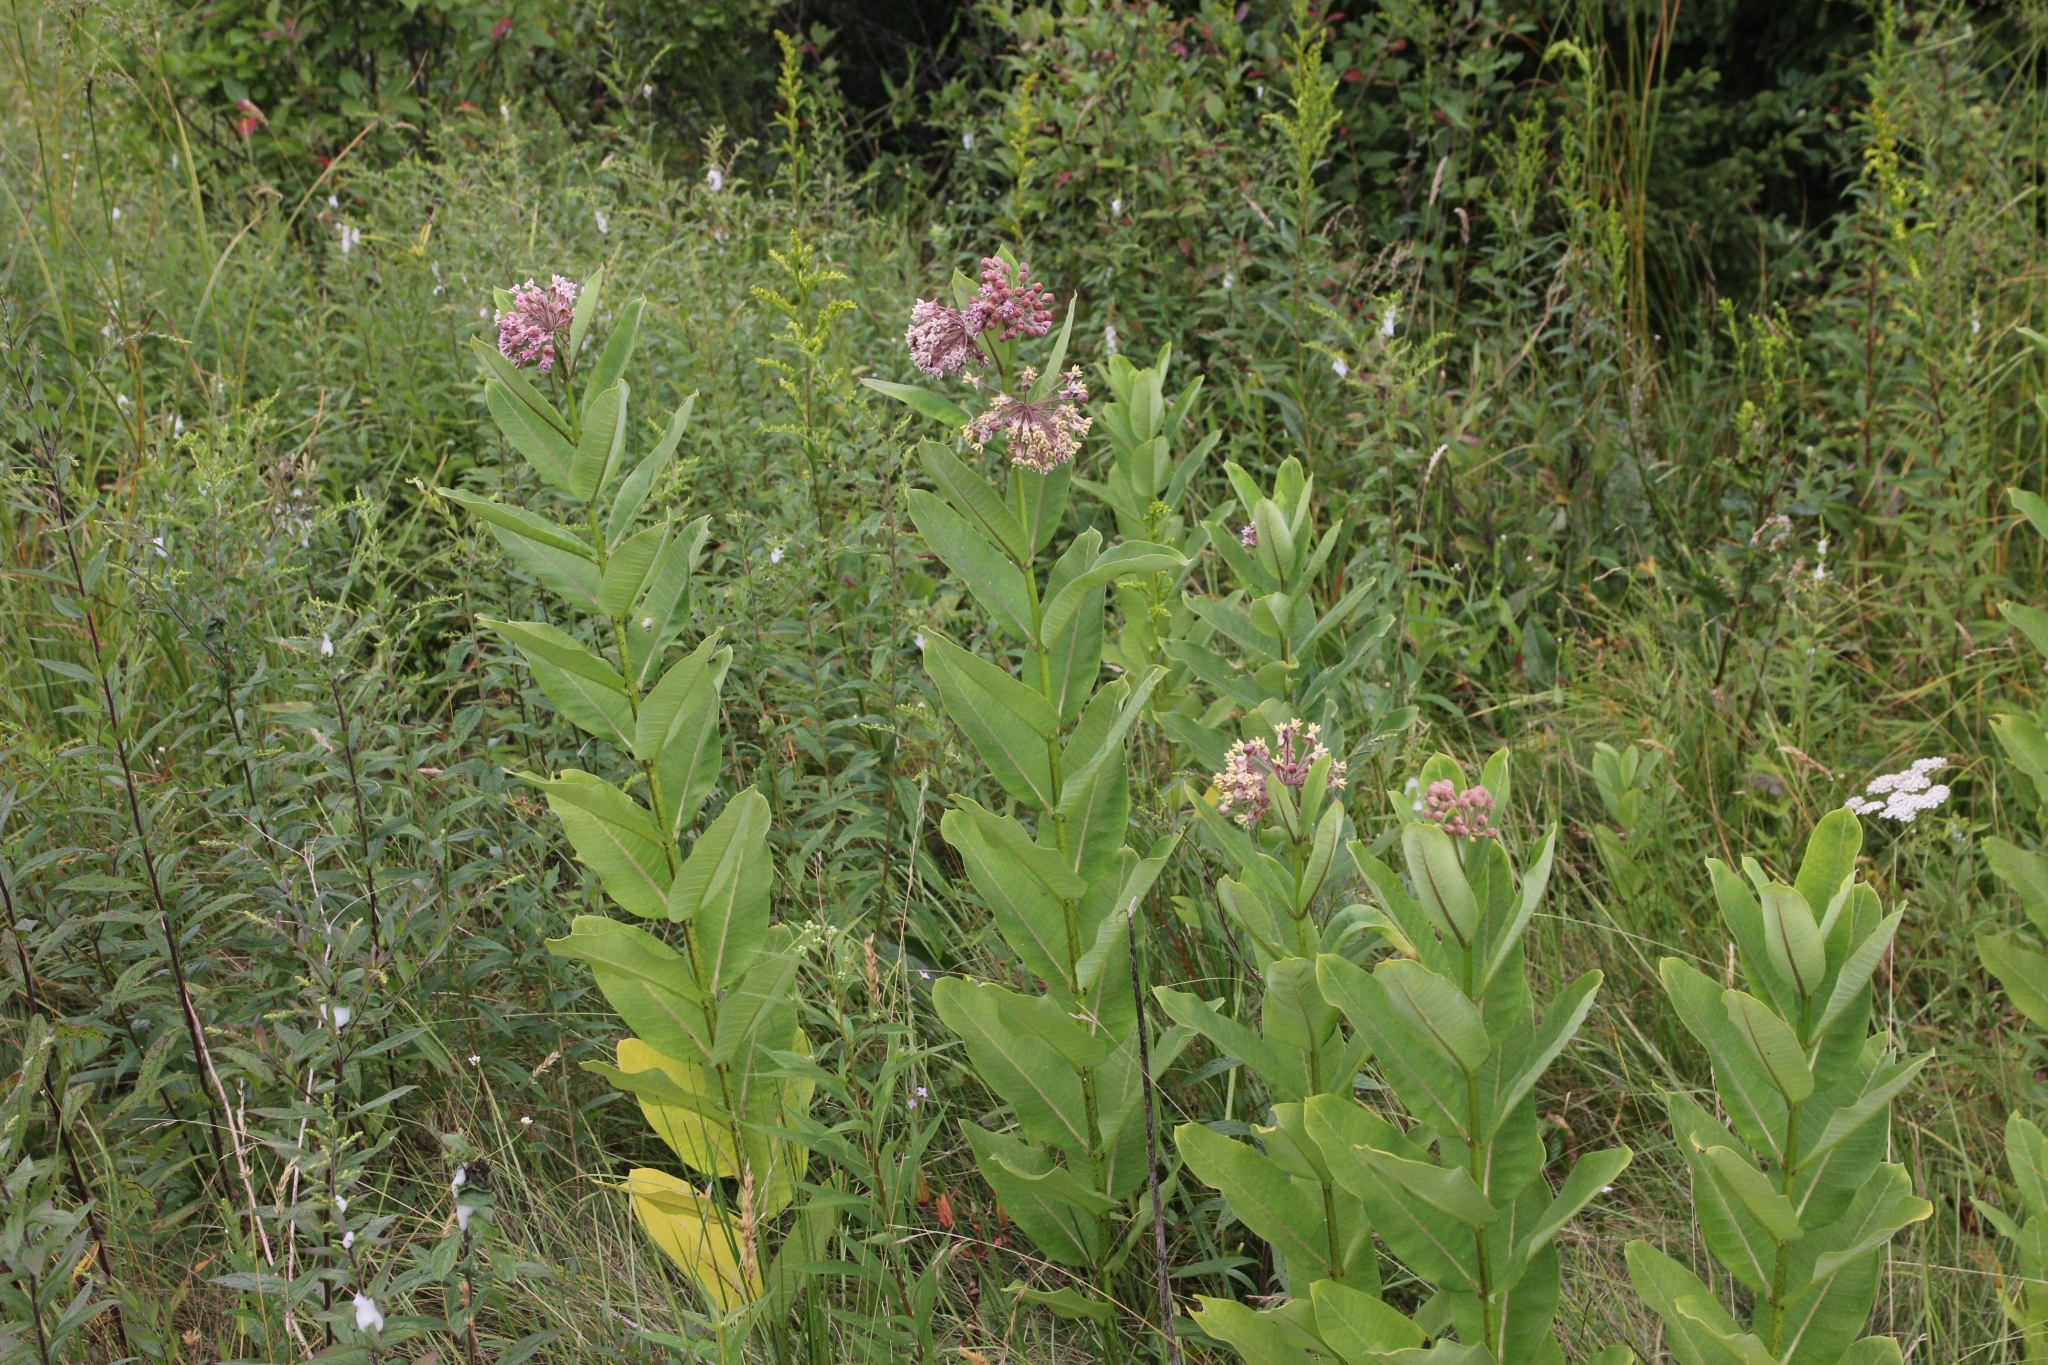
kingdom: Plantae
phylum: Tracheophyta
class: Magnoliopsida
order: Gentianales
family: Apocynaceae
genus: Asclepias
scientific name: Asclepias syriaca
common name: Common milkweed
